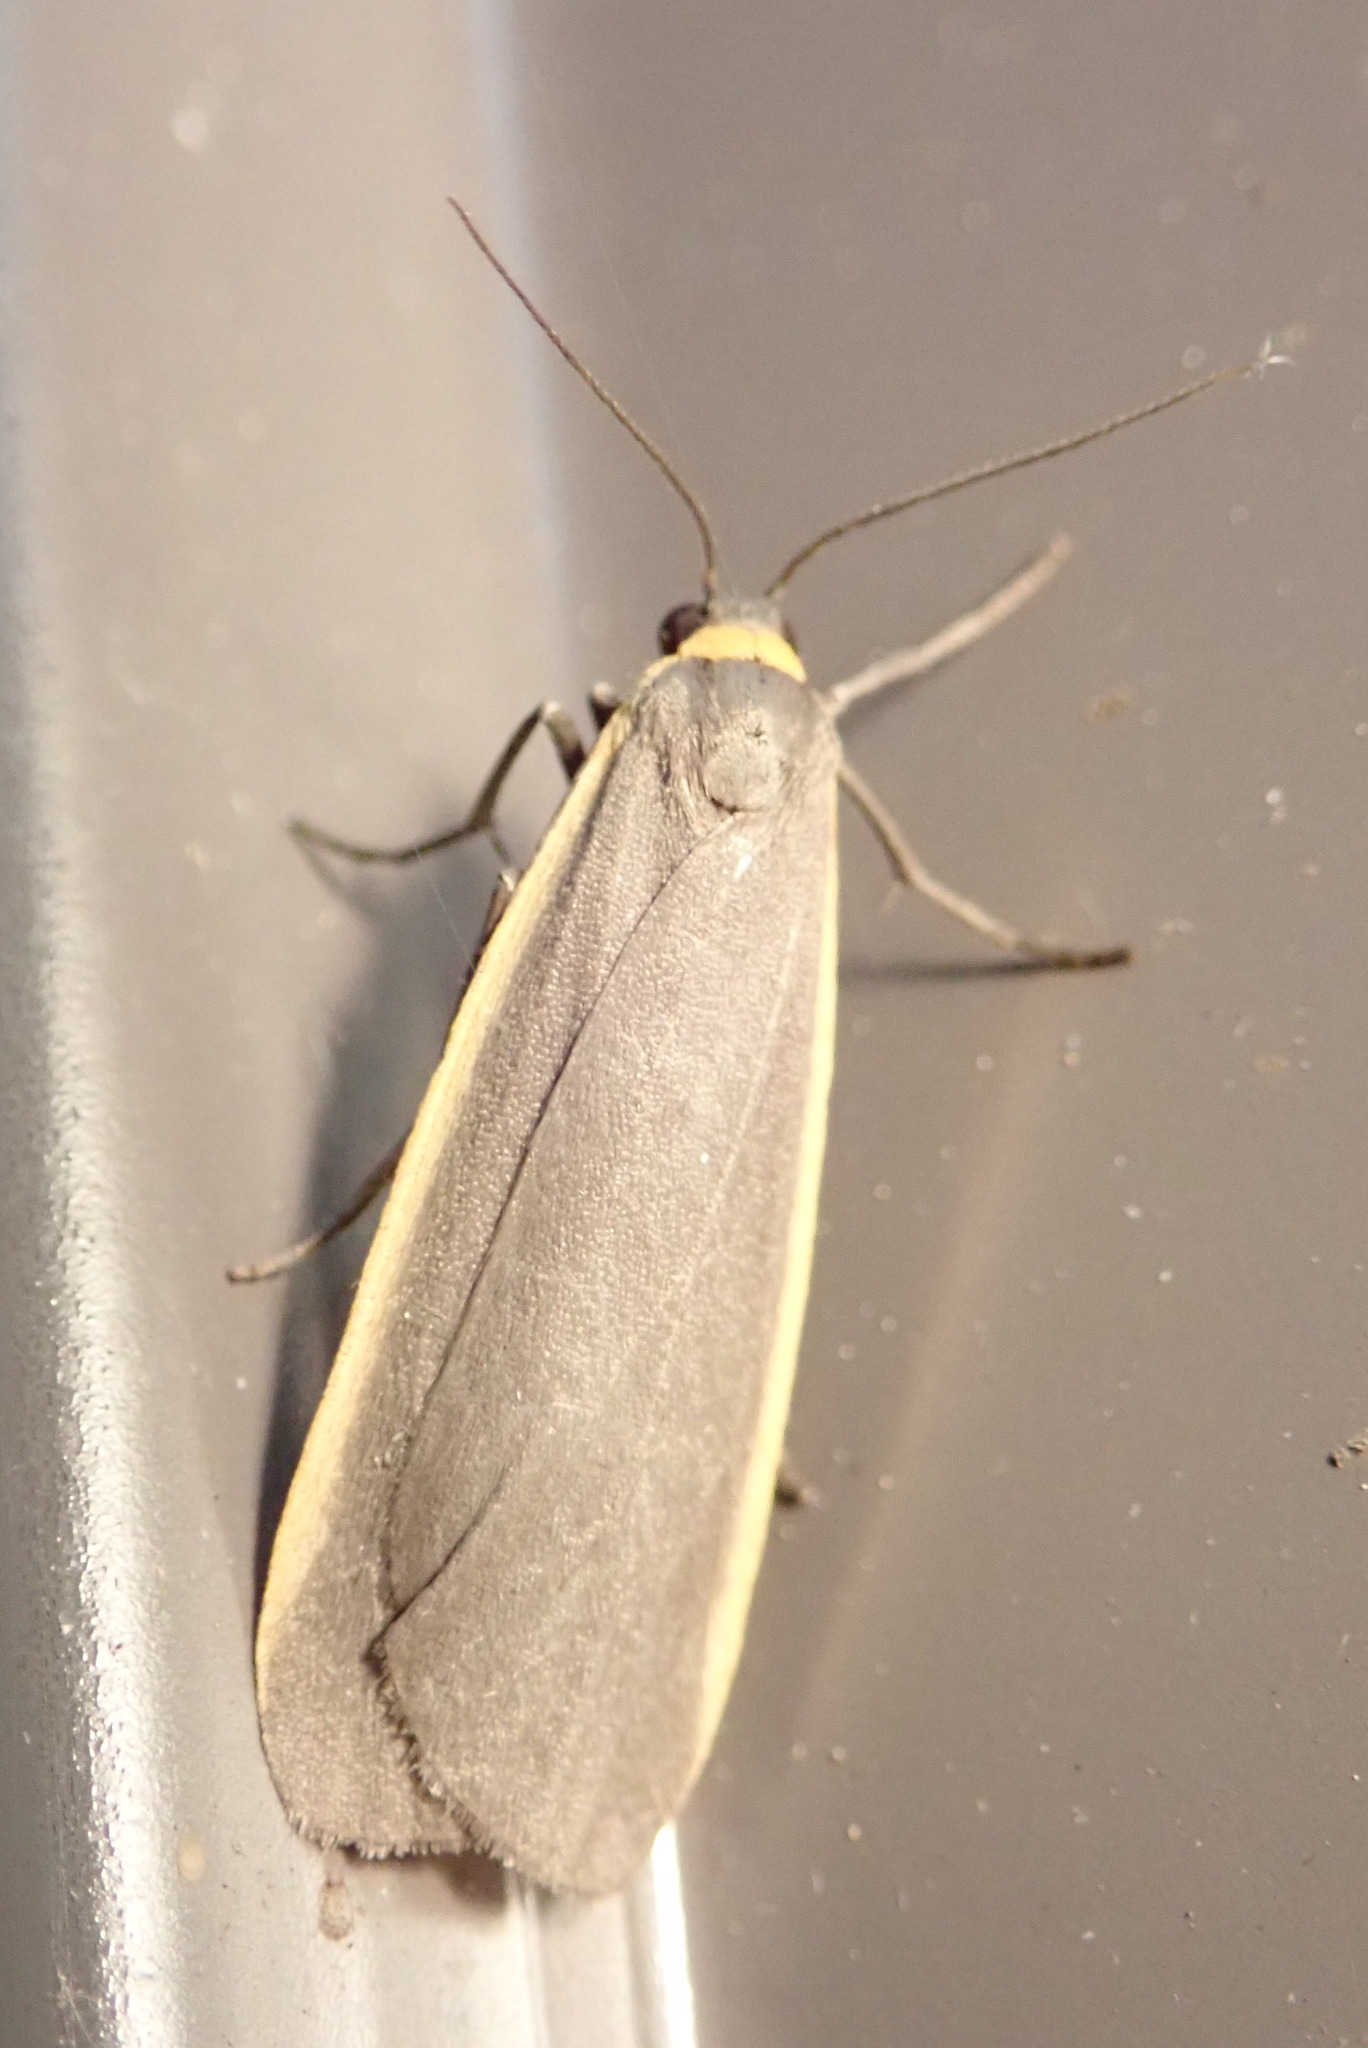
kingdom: Animalia
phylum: Arthropoda
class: Insecta
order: Lepidoptera
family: Erebidae
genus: Manulea
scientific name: Manulea bicolor
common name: Bicolored moth
